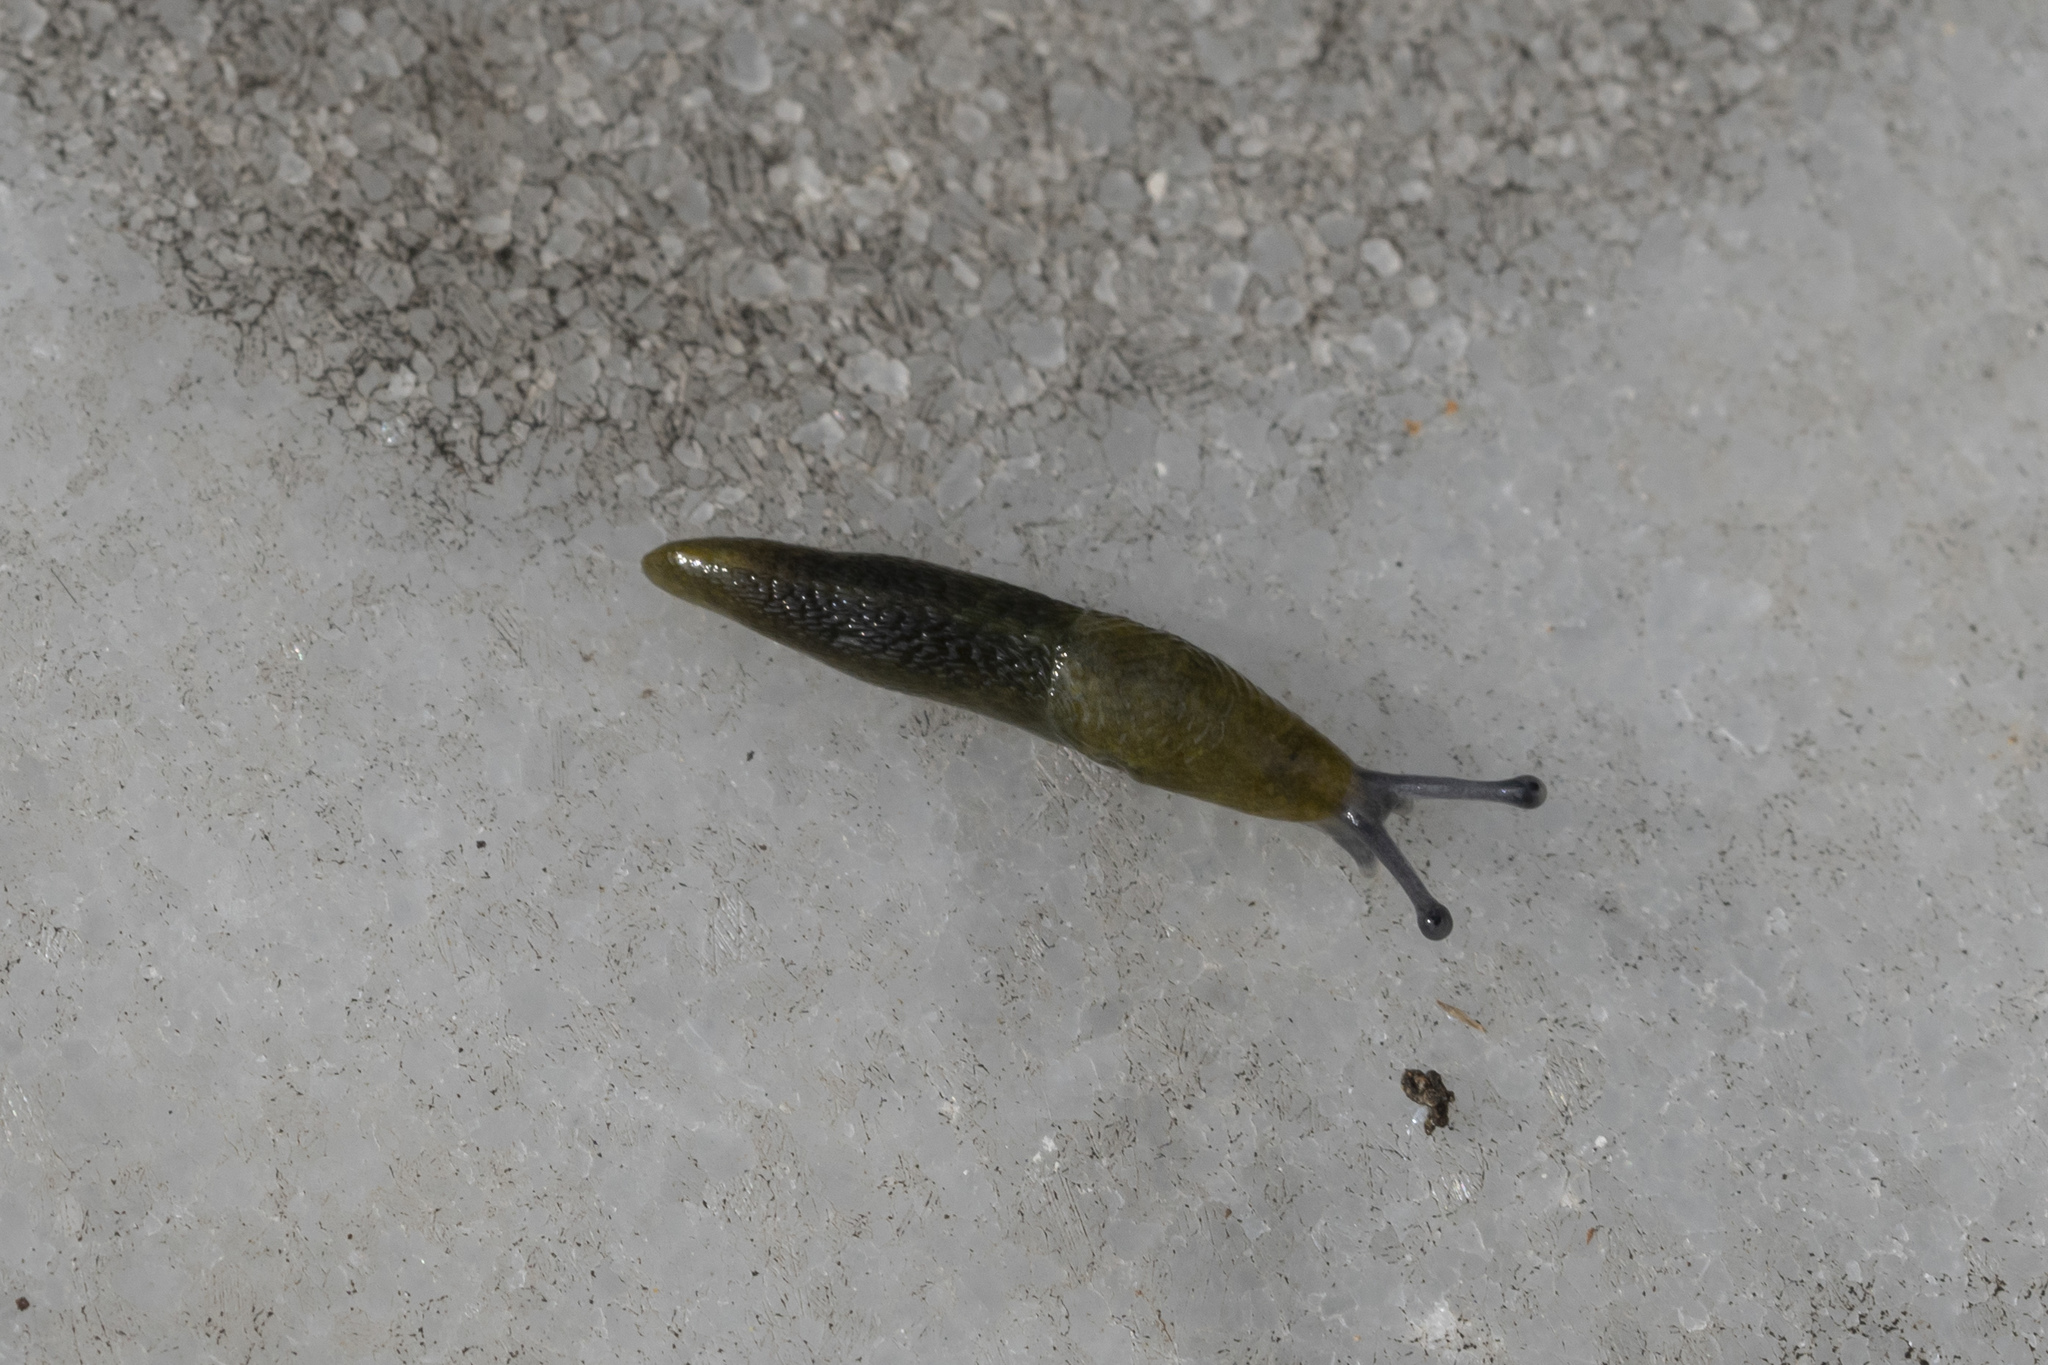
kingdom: Animalia
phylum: Mollusca
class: Gastropoda
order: Stylommatophora
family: Limacidae
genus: Limacus
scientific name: Limacus flavus
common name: Yellow gardenslug
